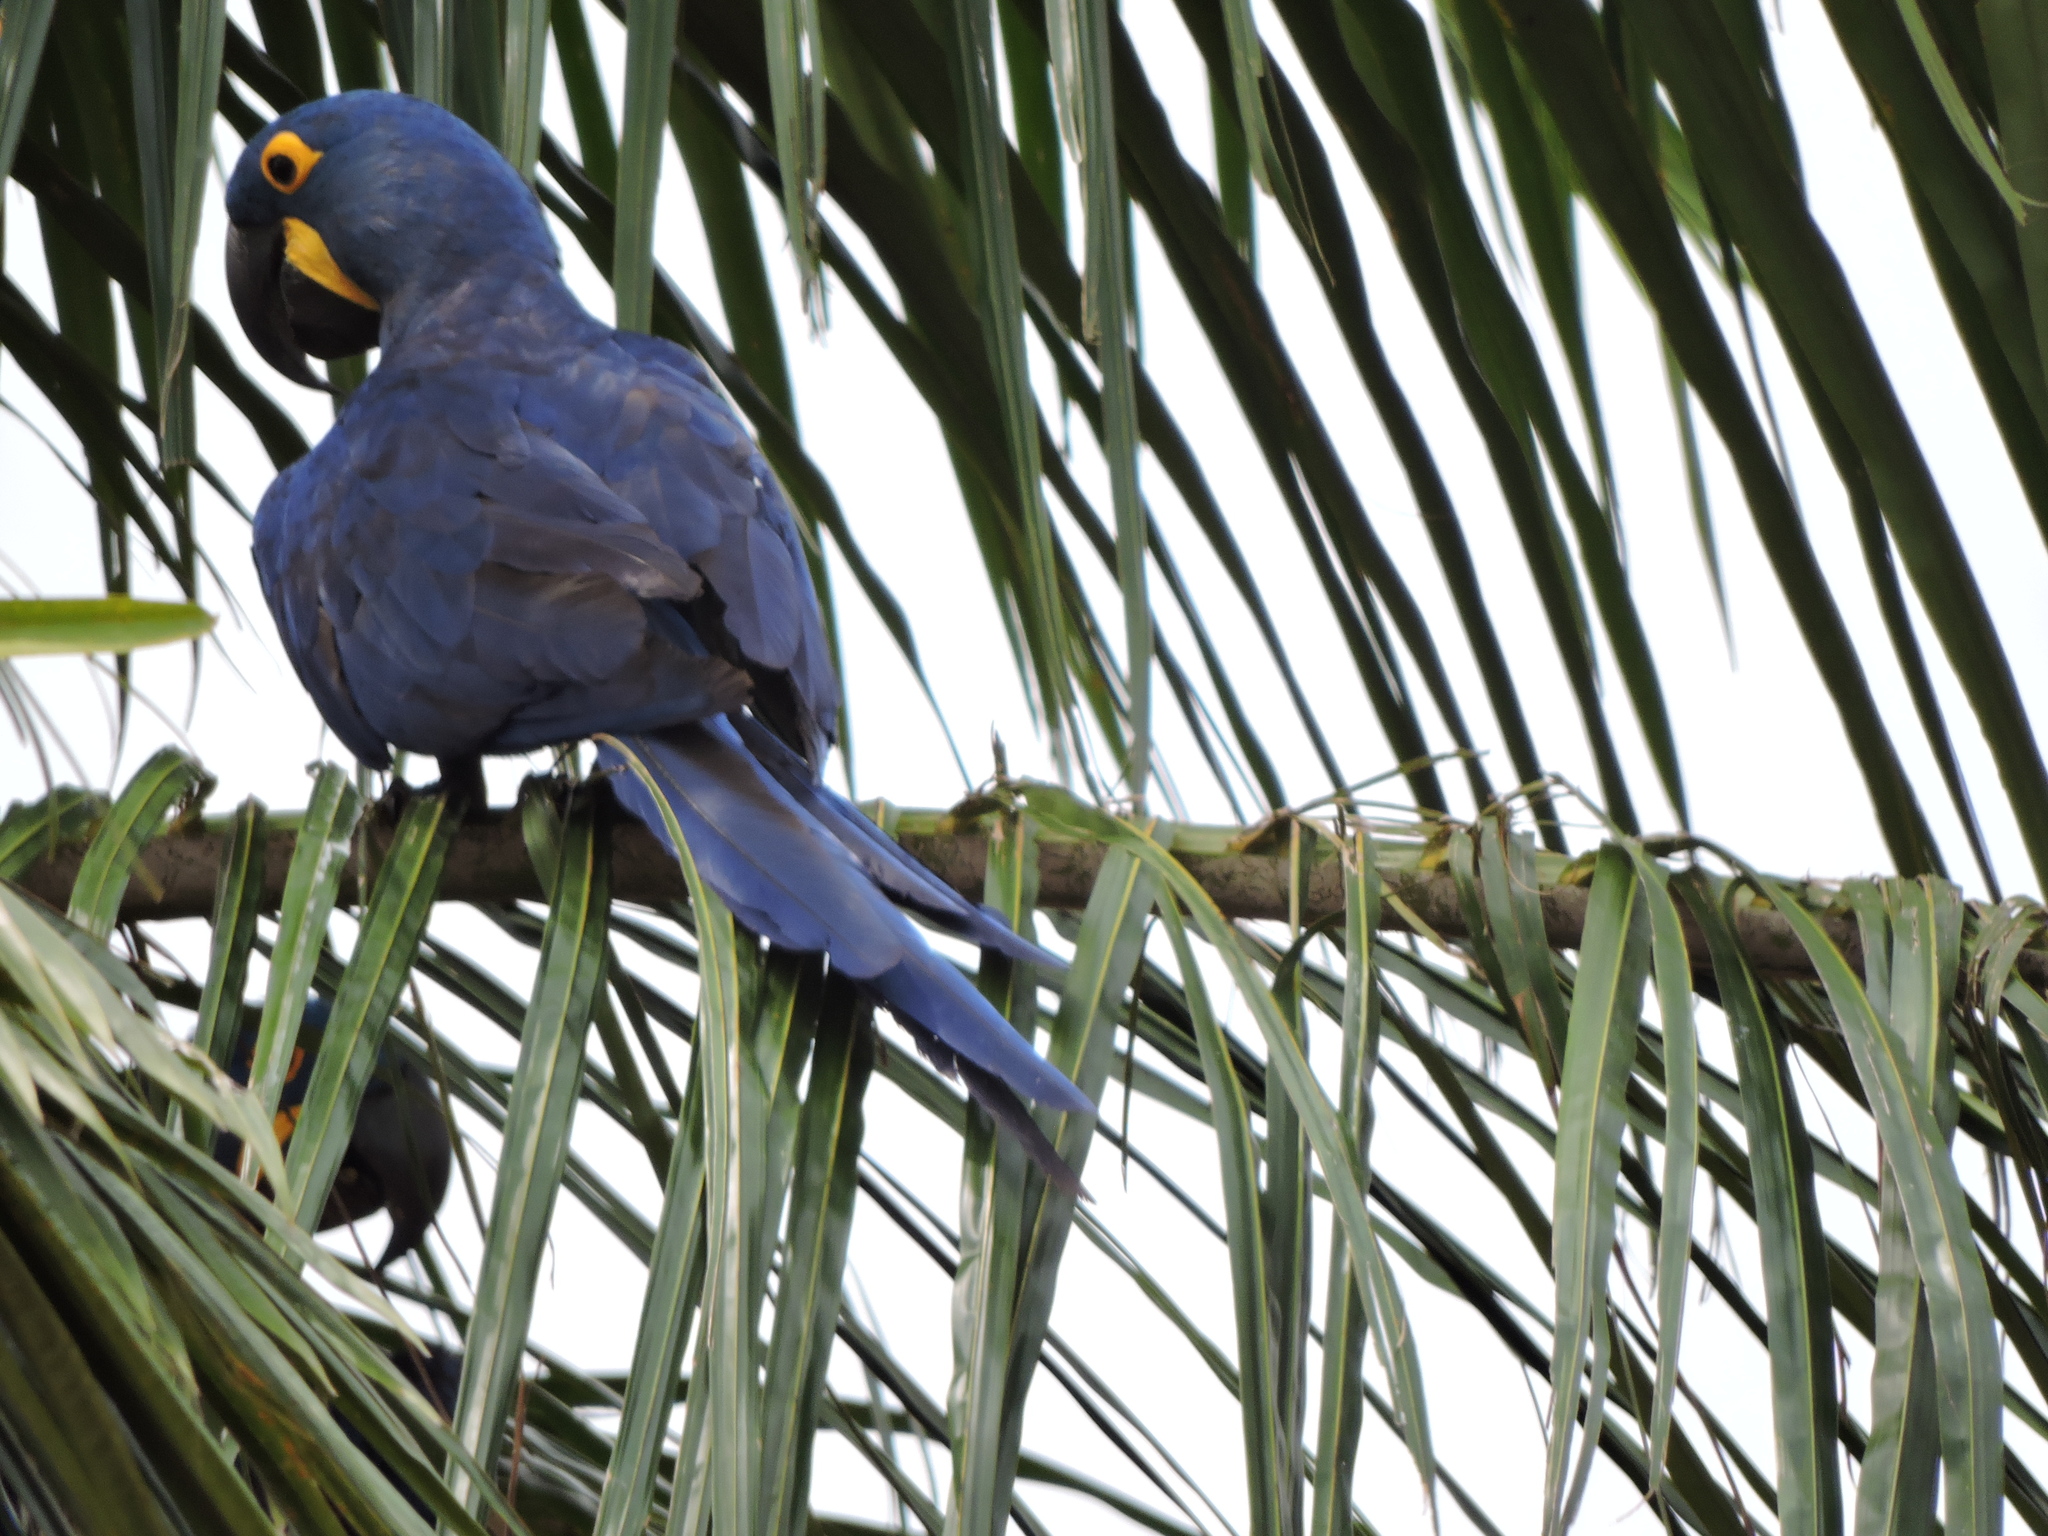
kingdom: Animalia
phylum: Chordata
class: Aves
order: Psittaciformes
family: Psittacidae
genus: Anodorhynchus
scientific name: Anodorhynchus hyacinthinus
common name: Hyacinth macaw
